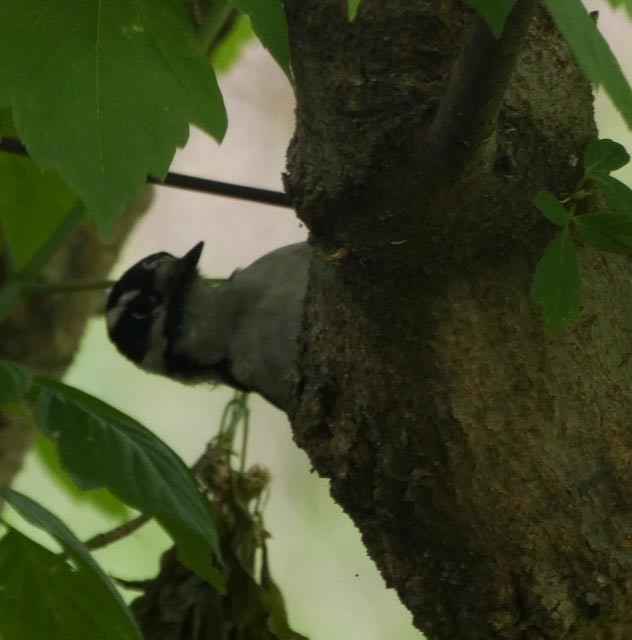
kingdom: Animalia
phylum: Chordata
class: Aves
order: Piciformes
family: Picidae
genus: Dryobates
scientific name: Dryobates pubescens
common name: Downy woodpecker
